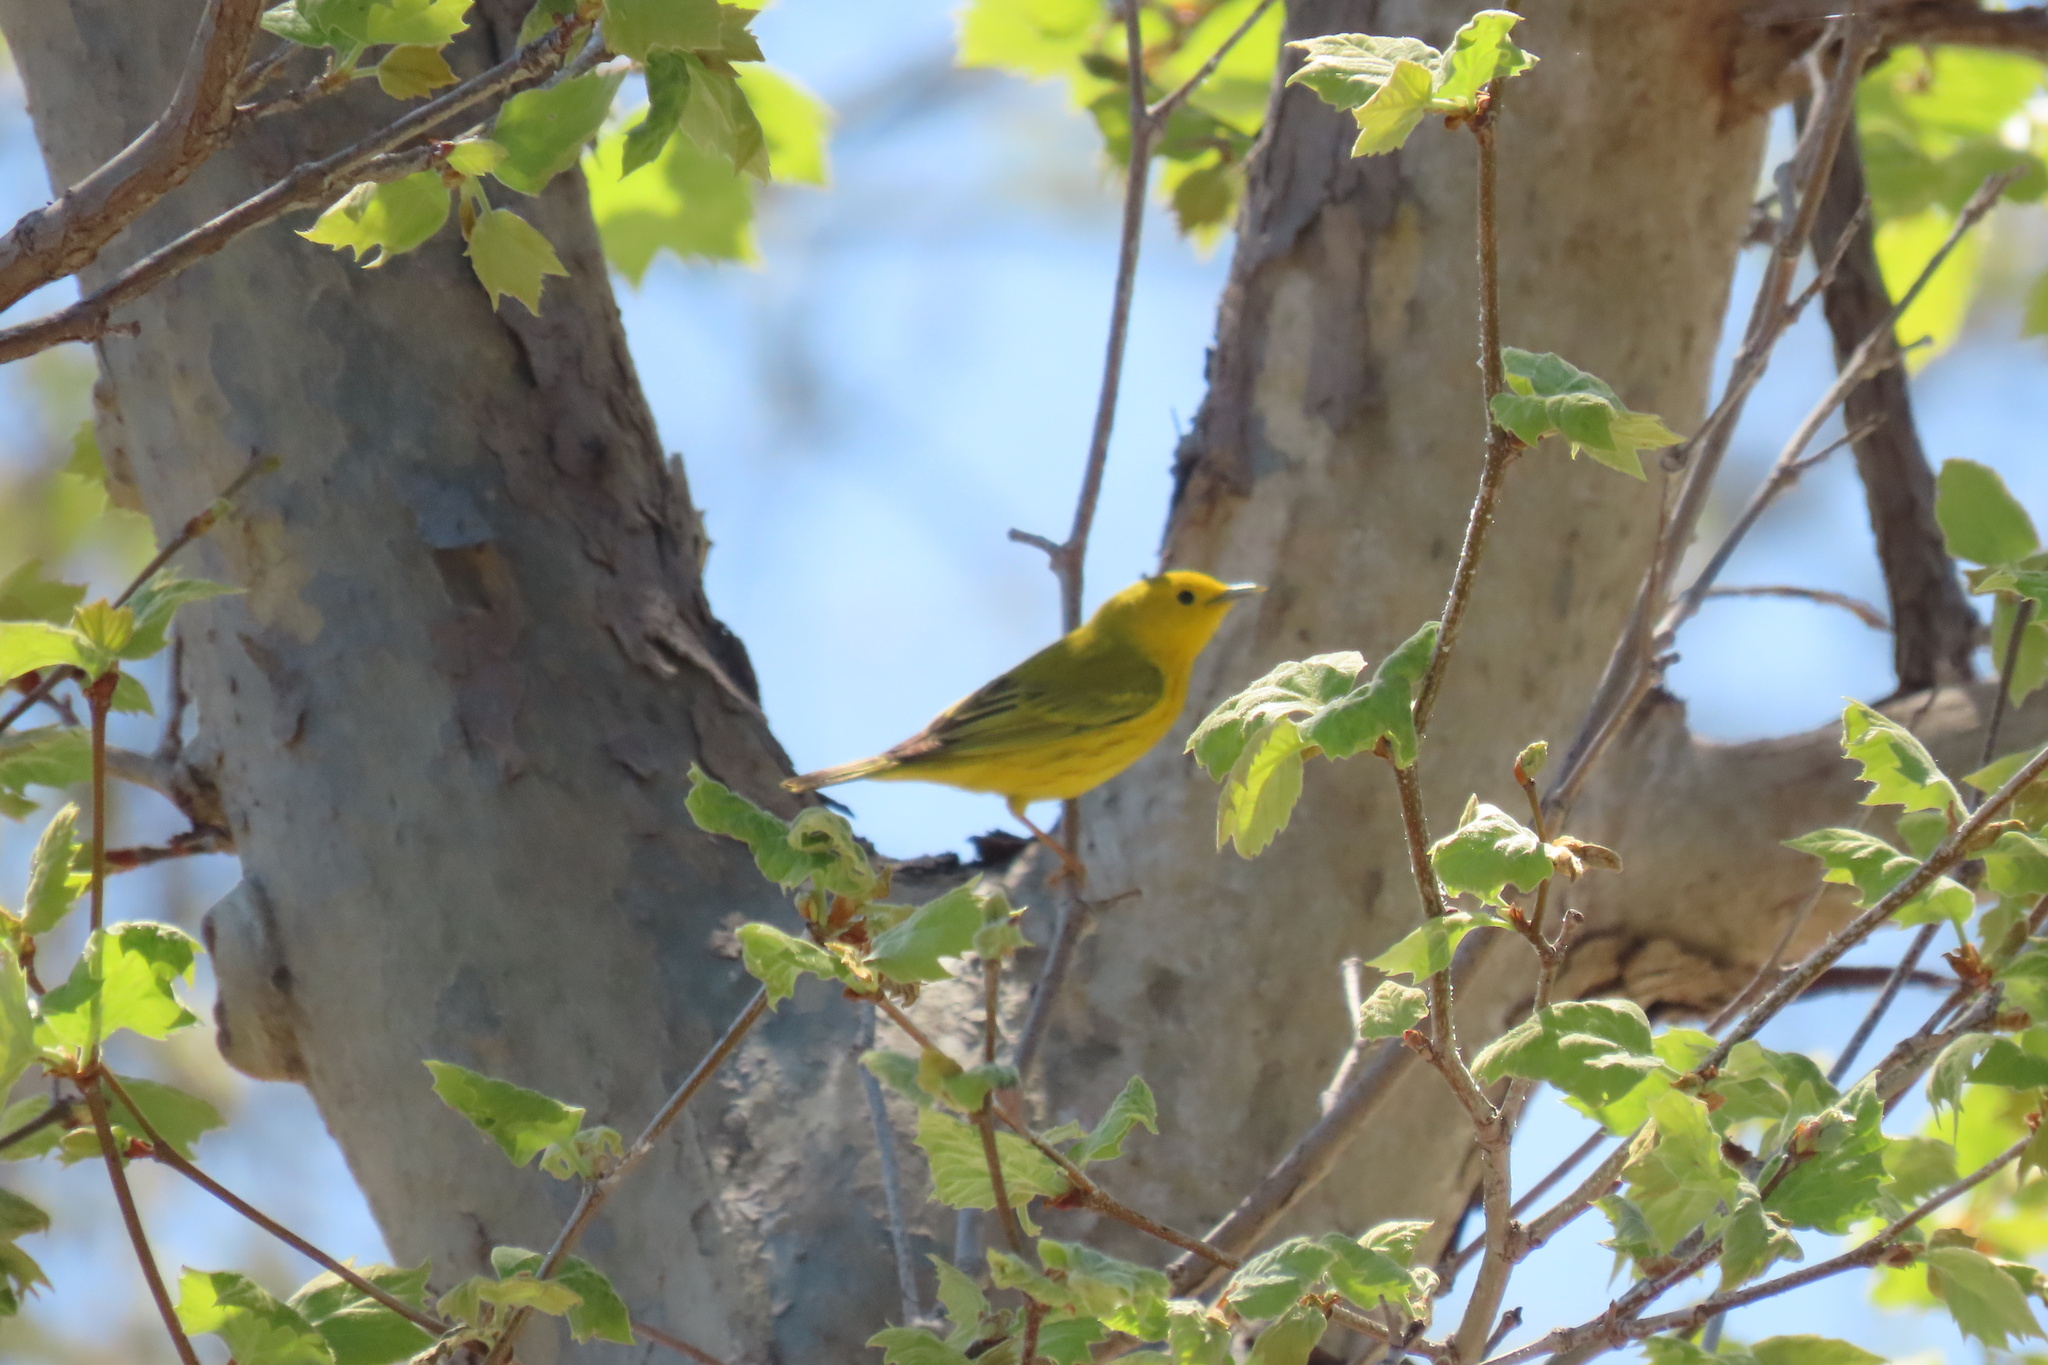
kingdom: Animalia
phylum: Chordata
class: Aves
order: Passeriformes
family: Parulidae
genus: Setophaga
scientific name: Setophaga petechia
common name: Yellow warbler
